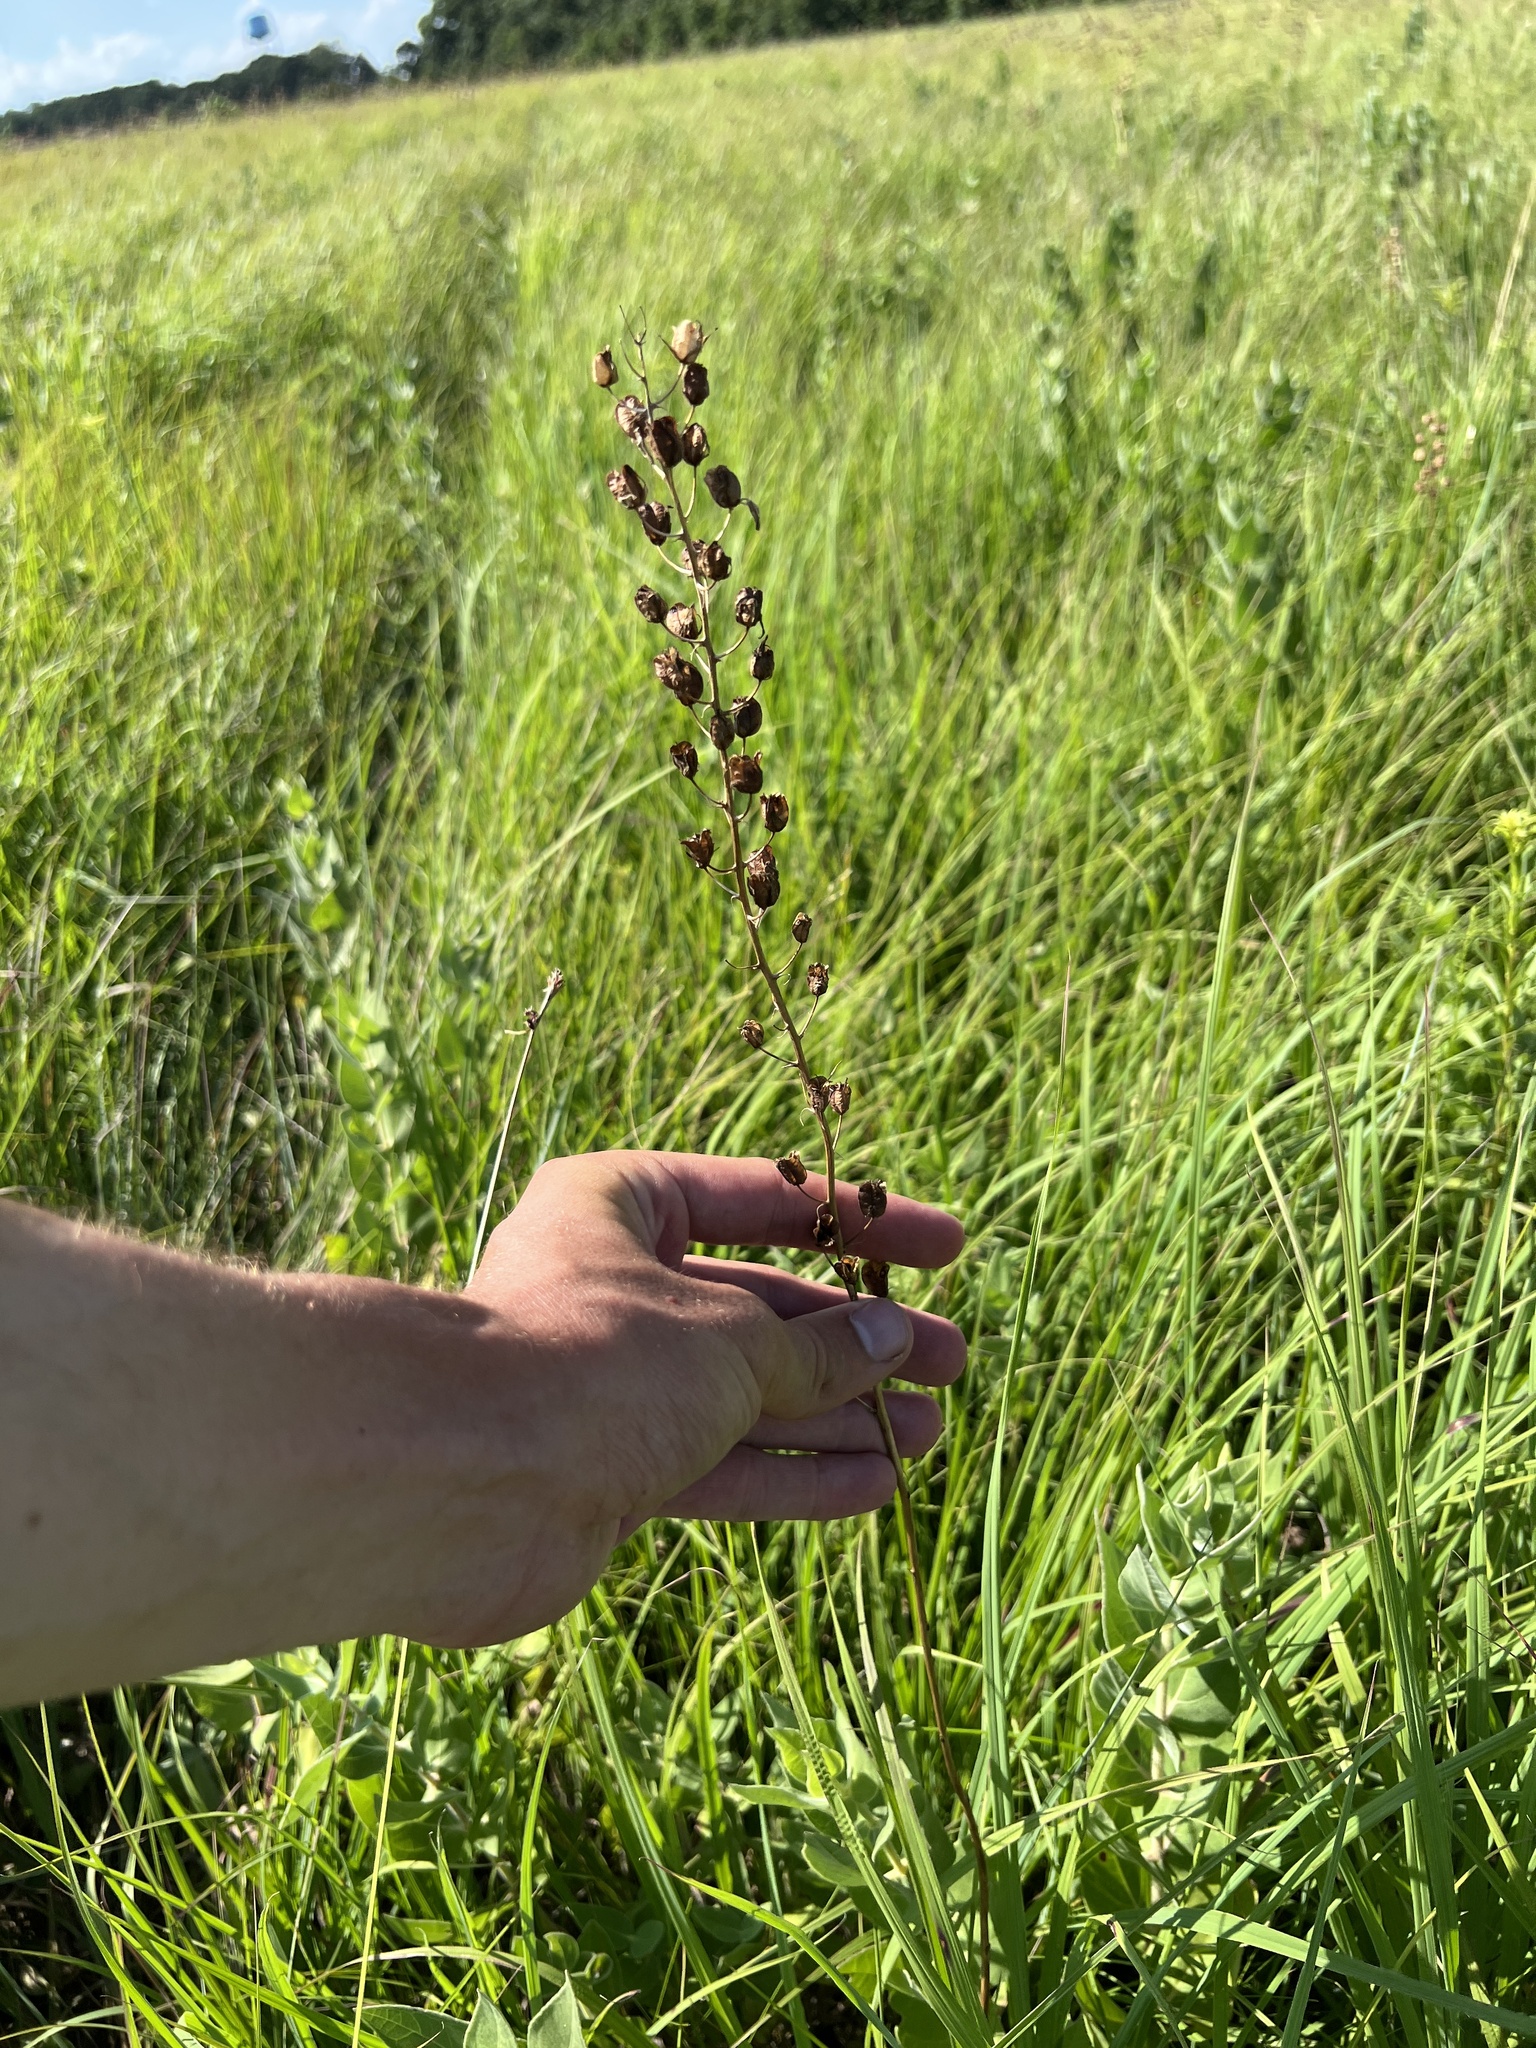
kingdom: Plantae
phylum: Tracheophyta
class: Liliopsida
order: Asparagales
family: Asparagaceae
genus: Camassia
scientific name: Camassia angusta
